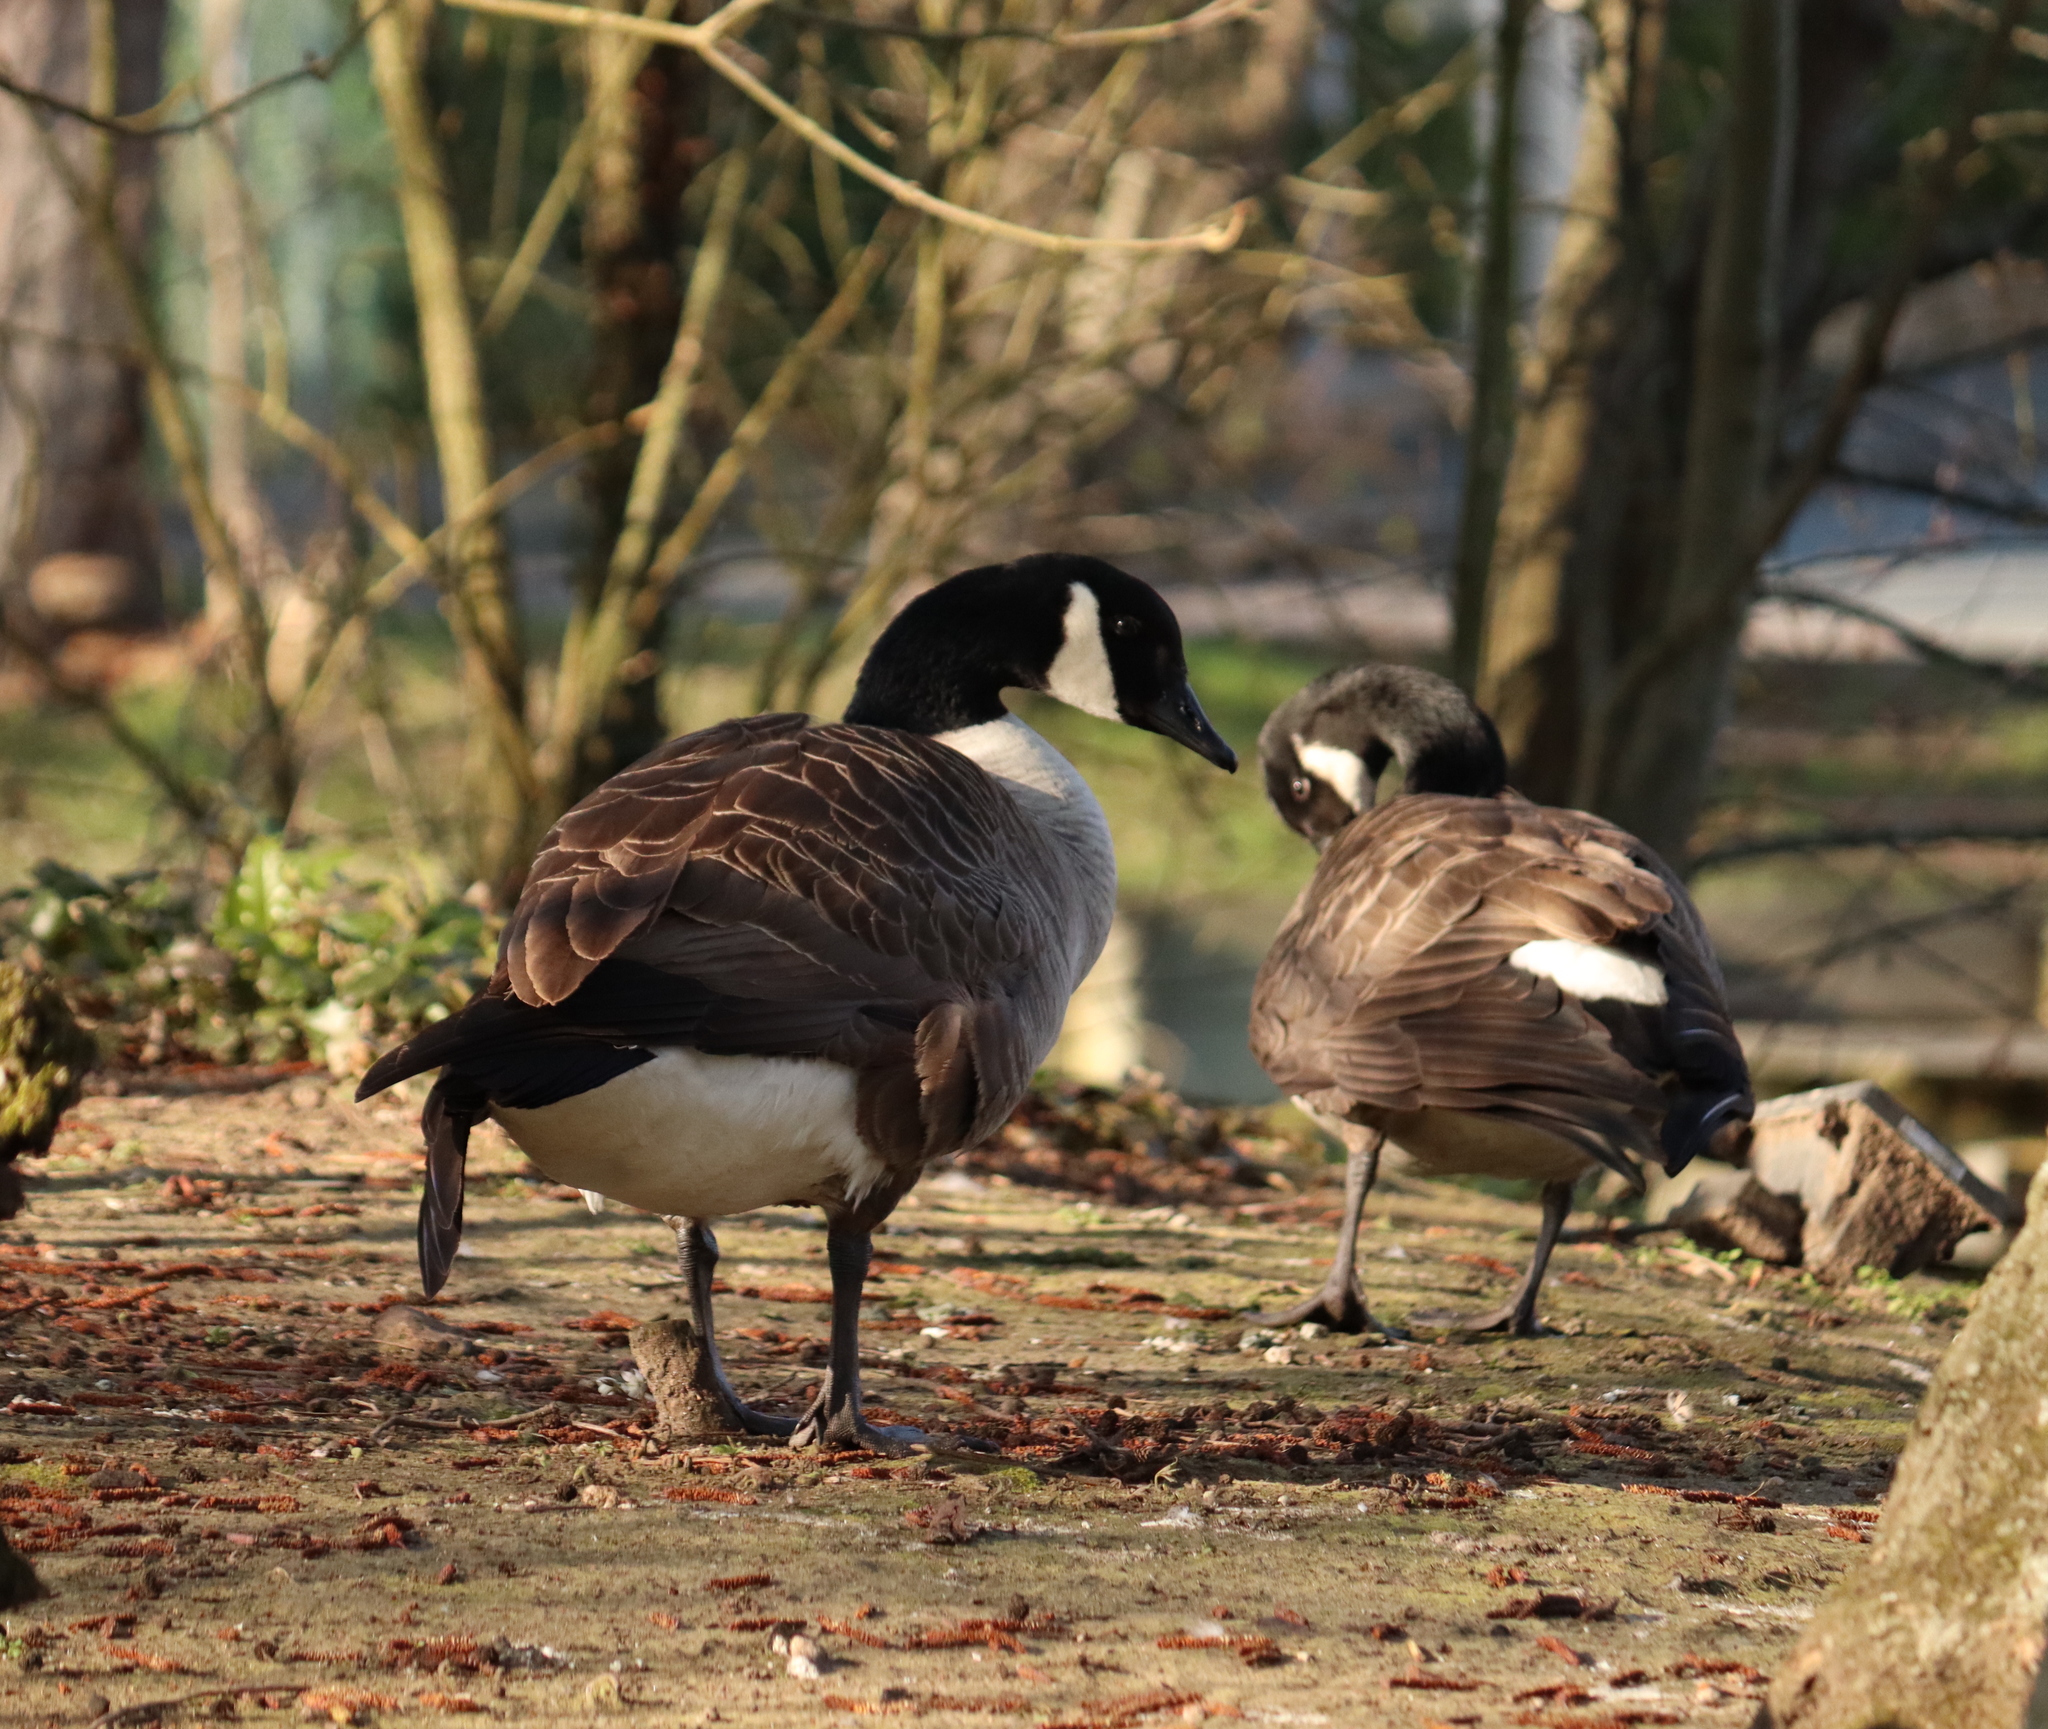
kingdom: Animalia
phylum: Chordata
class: Aves
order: Anseriformes
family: Anatidae
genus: Branta
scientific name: Branta canadensis
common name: Canada goose
